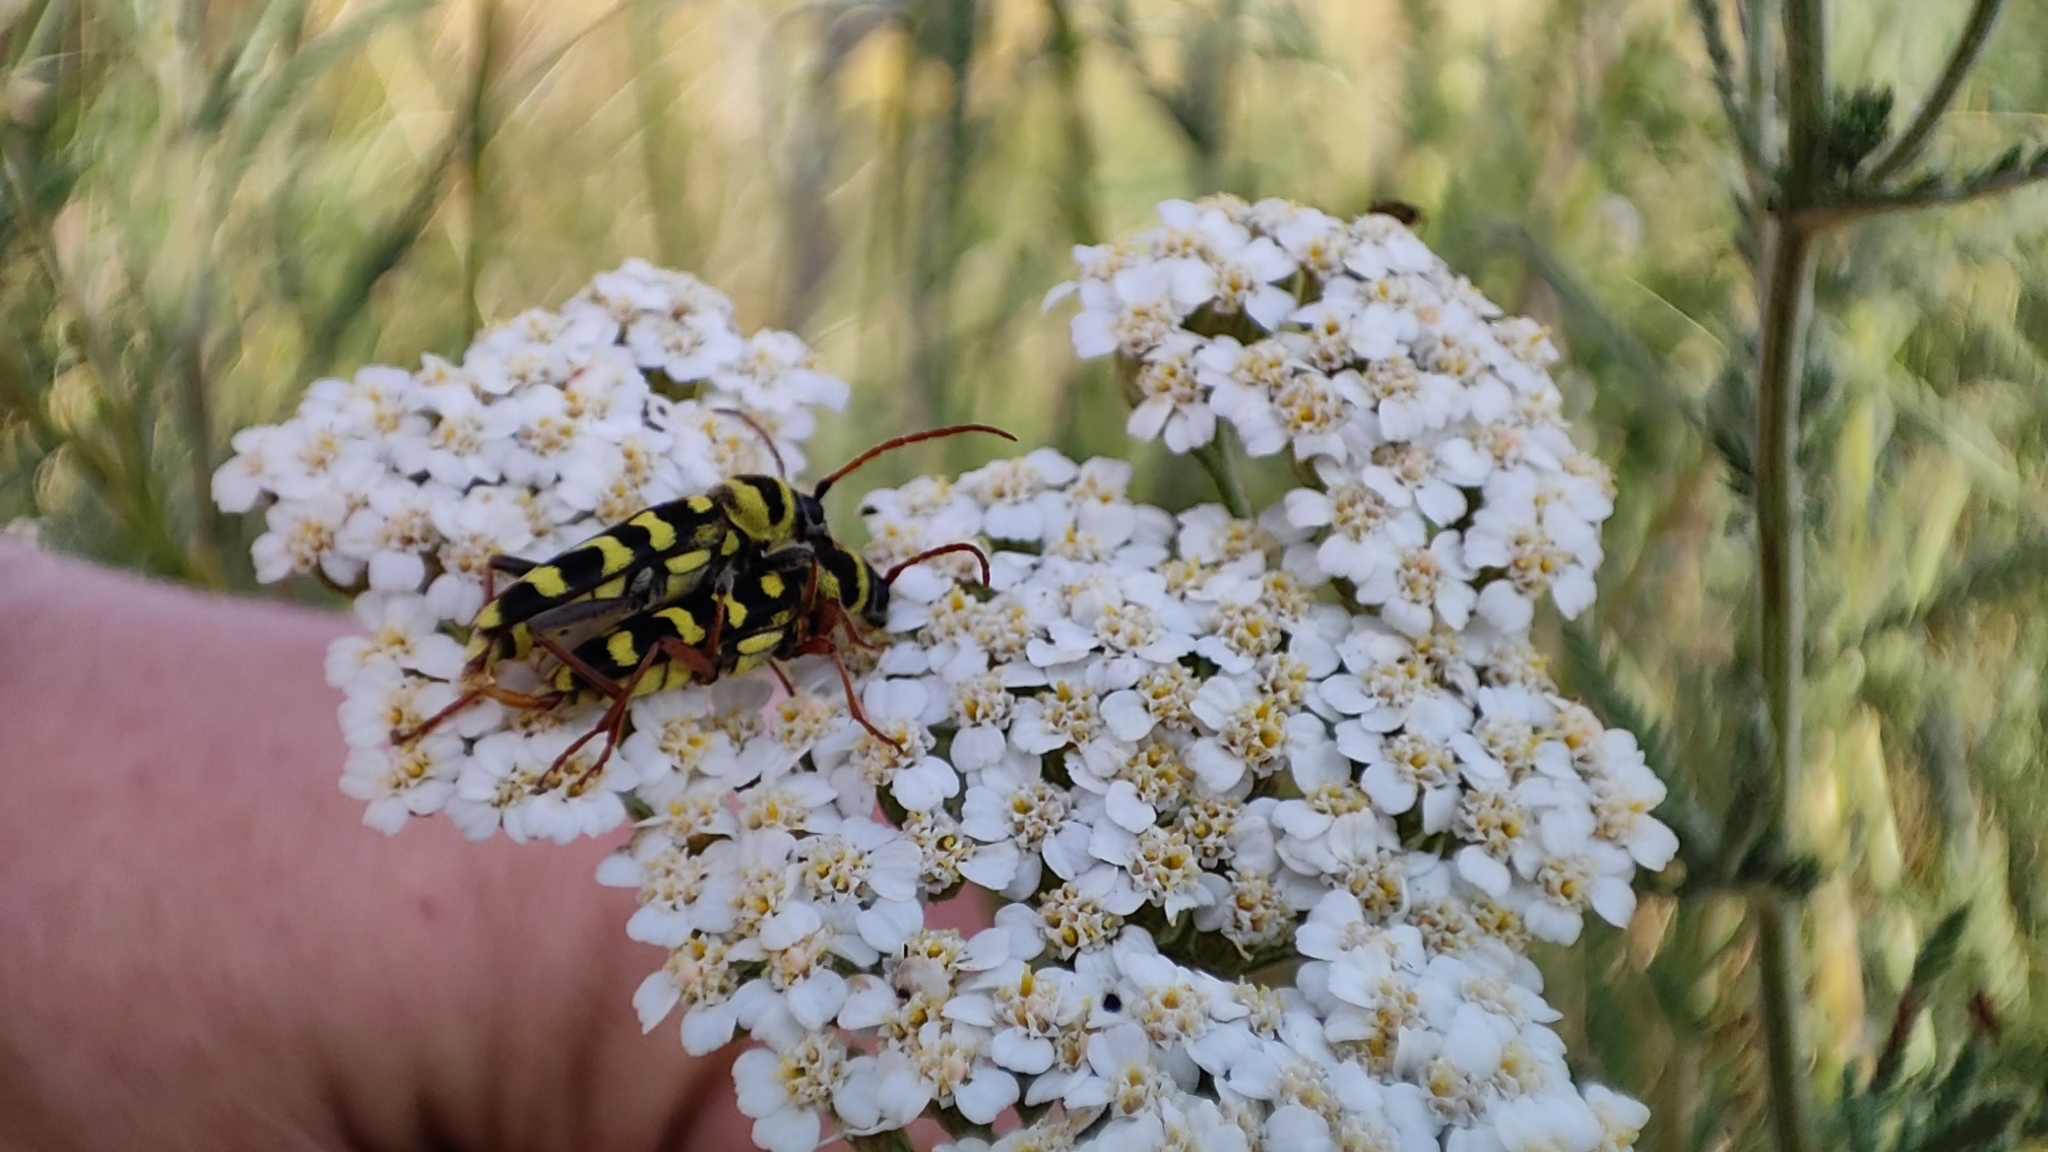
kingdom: Animalia
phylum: Arthropoda
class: Insecta
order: Coleoptera
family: Cerambycidae
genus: Plagionotus
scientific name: Plagionotus floralis
